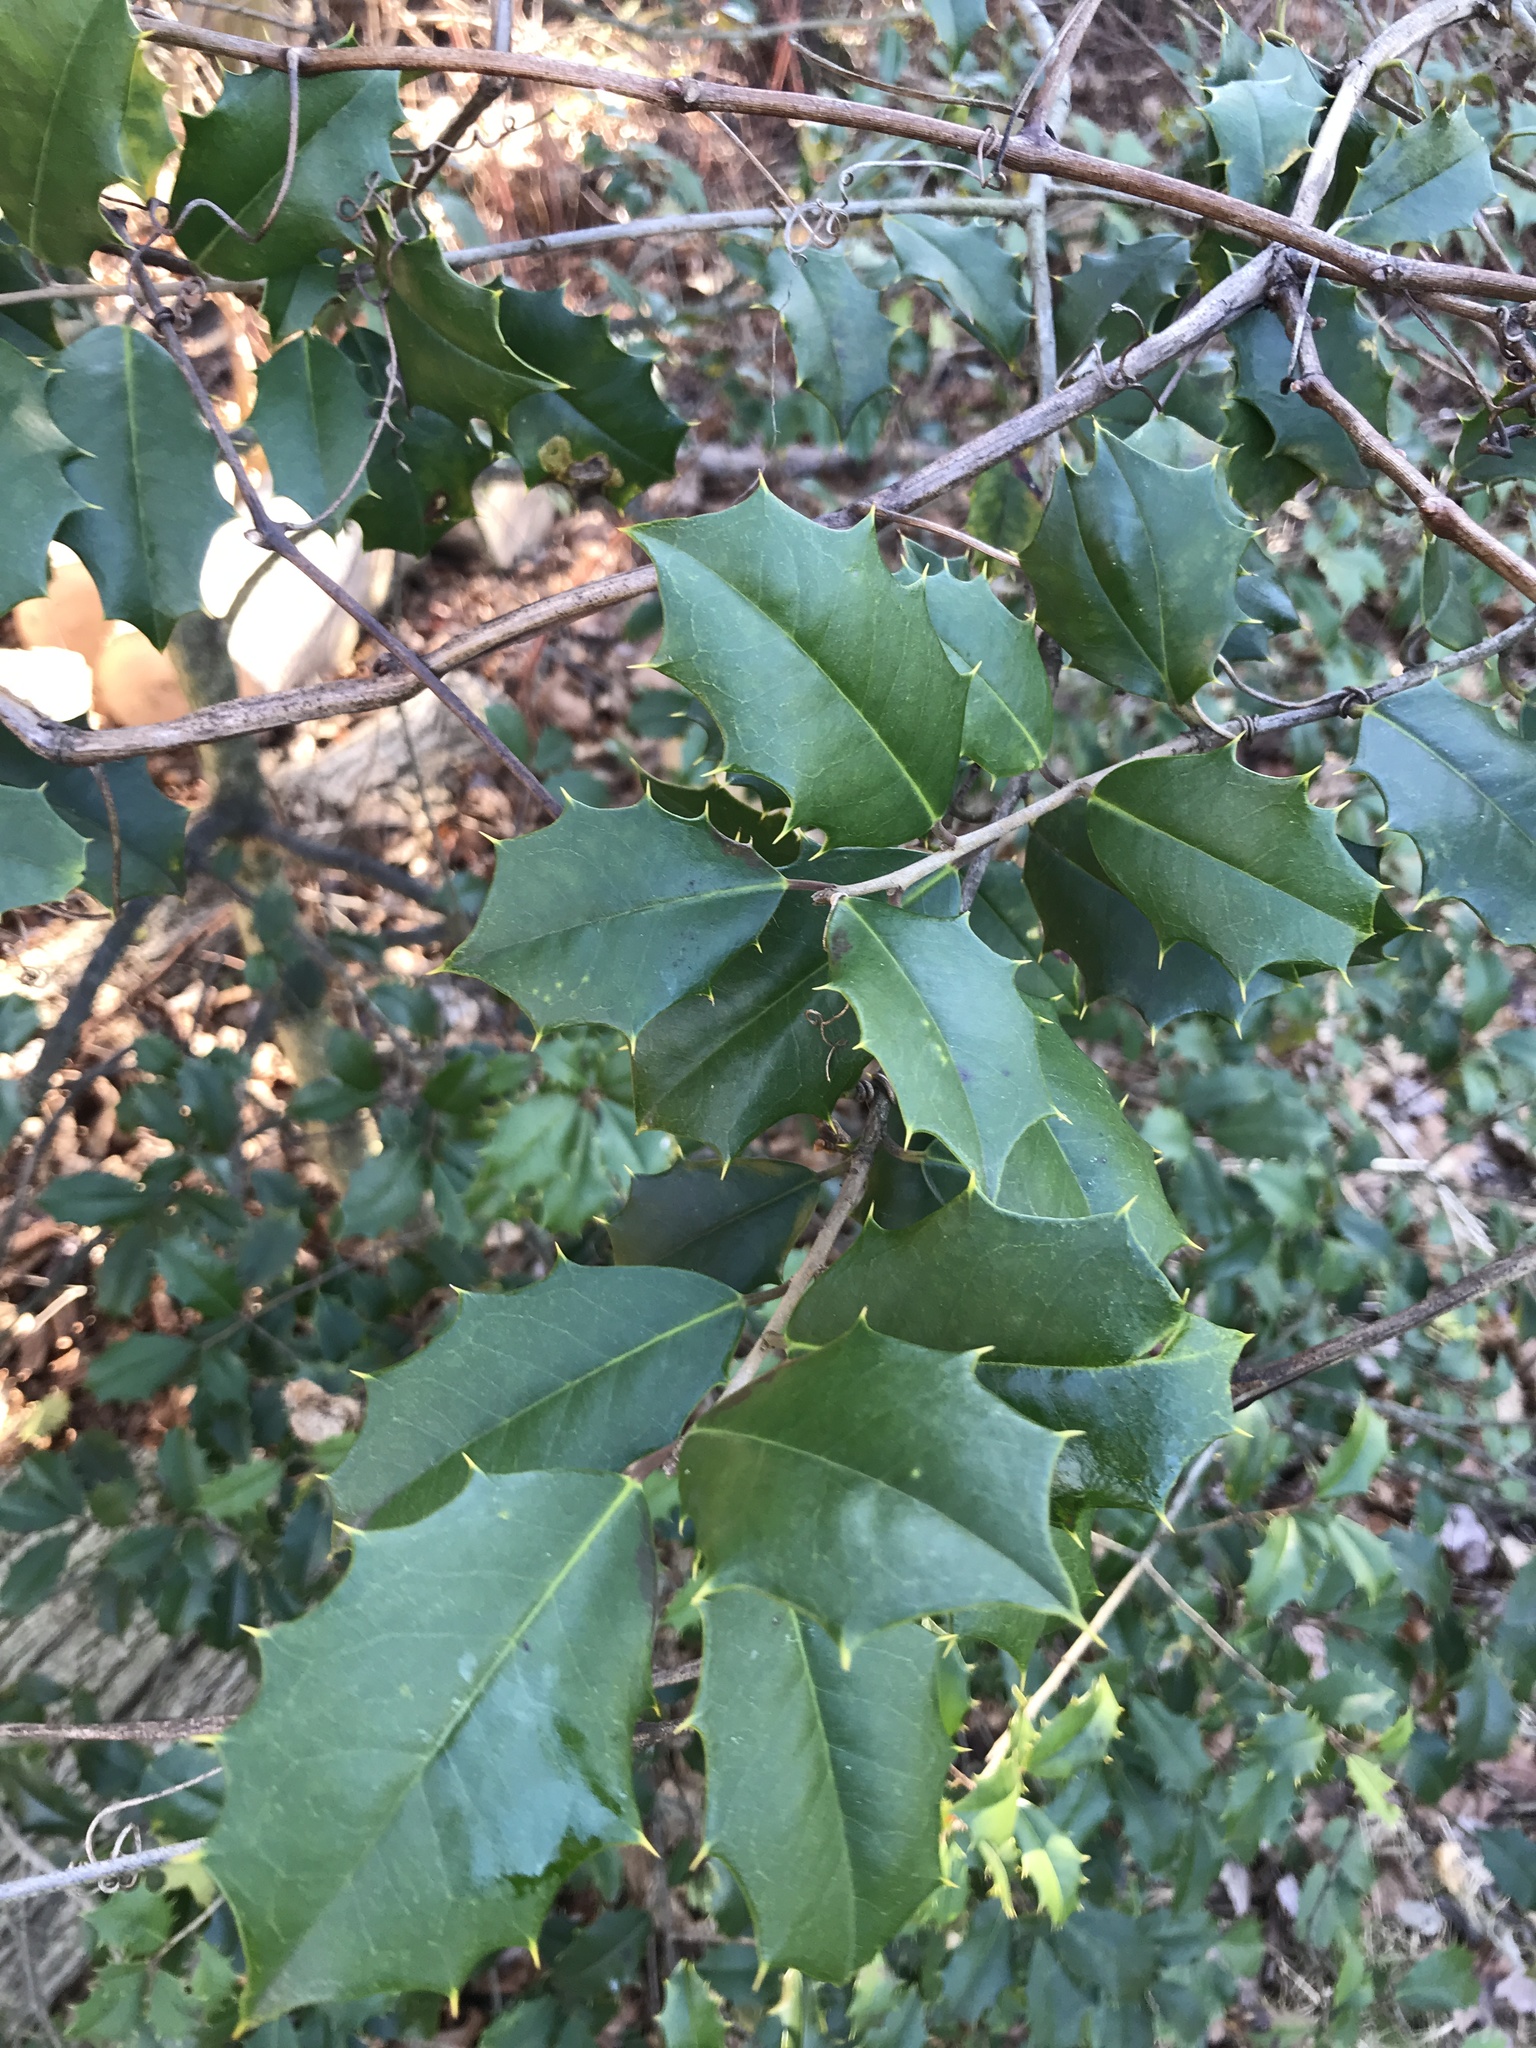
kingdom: Plantae
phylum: Tracheophyta
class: Magnoliopsida
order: Aquifoliales
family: Aquifoliaceae
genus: Ilex
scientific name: Ilex opaca
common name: American holly
